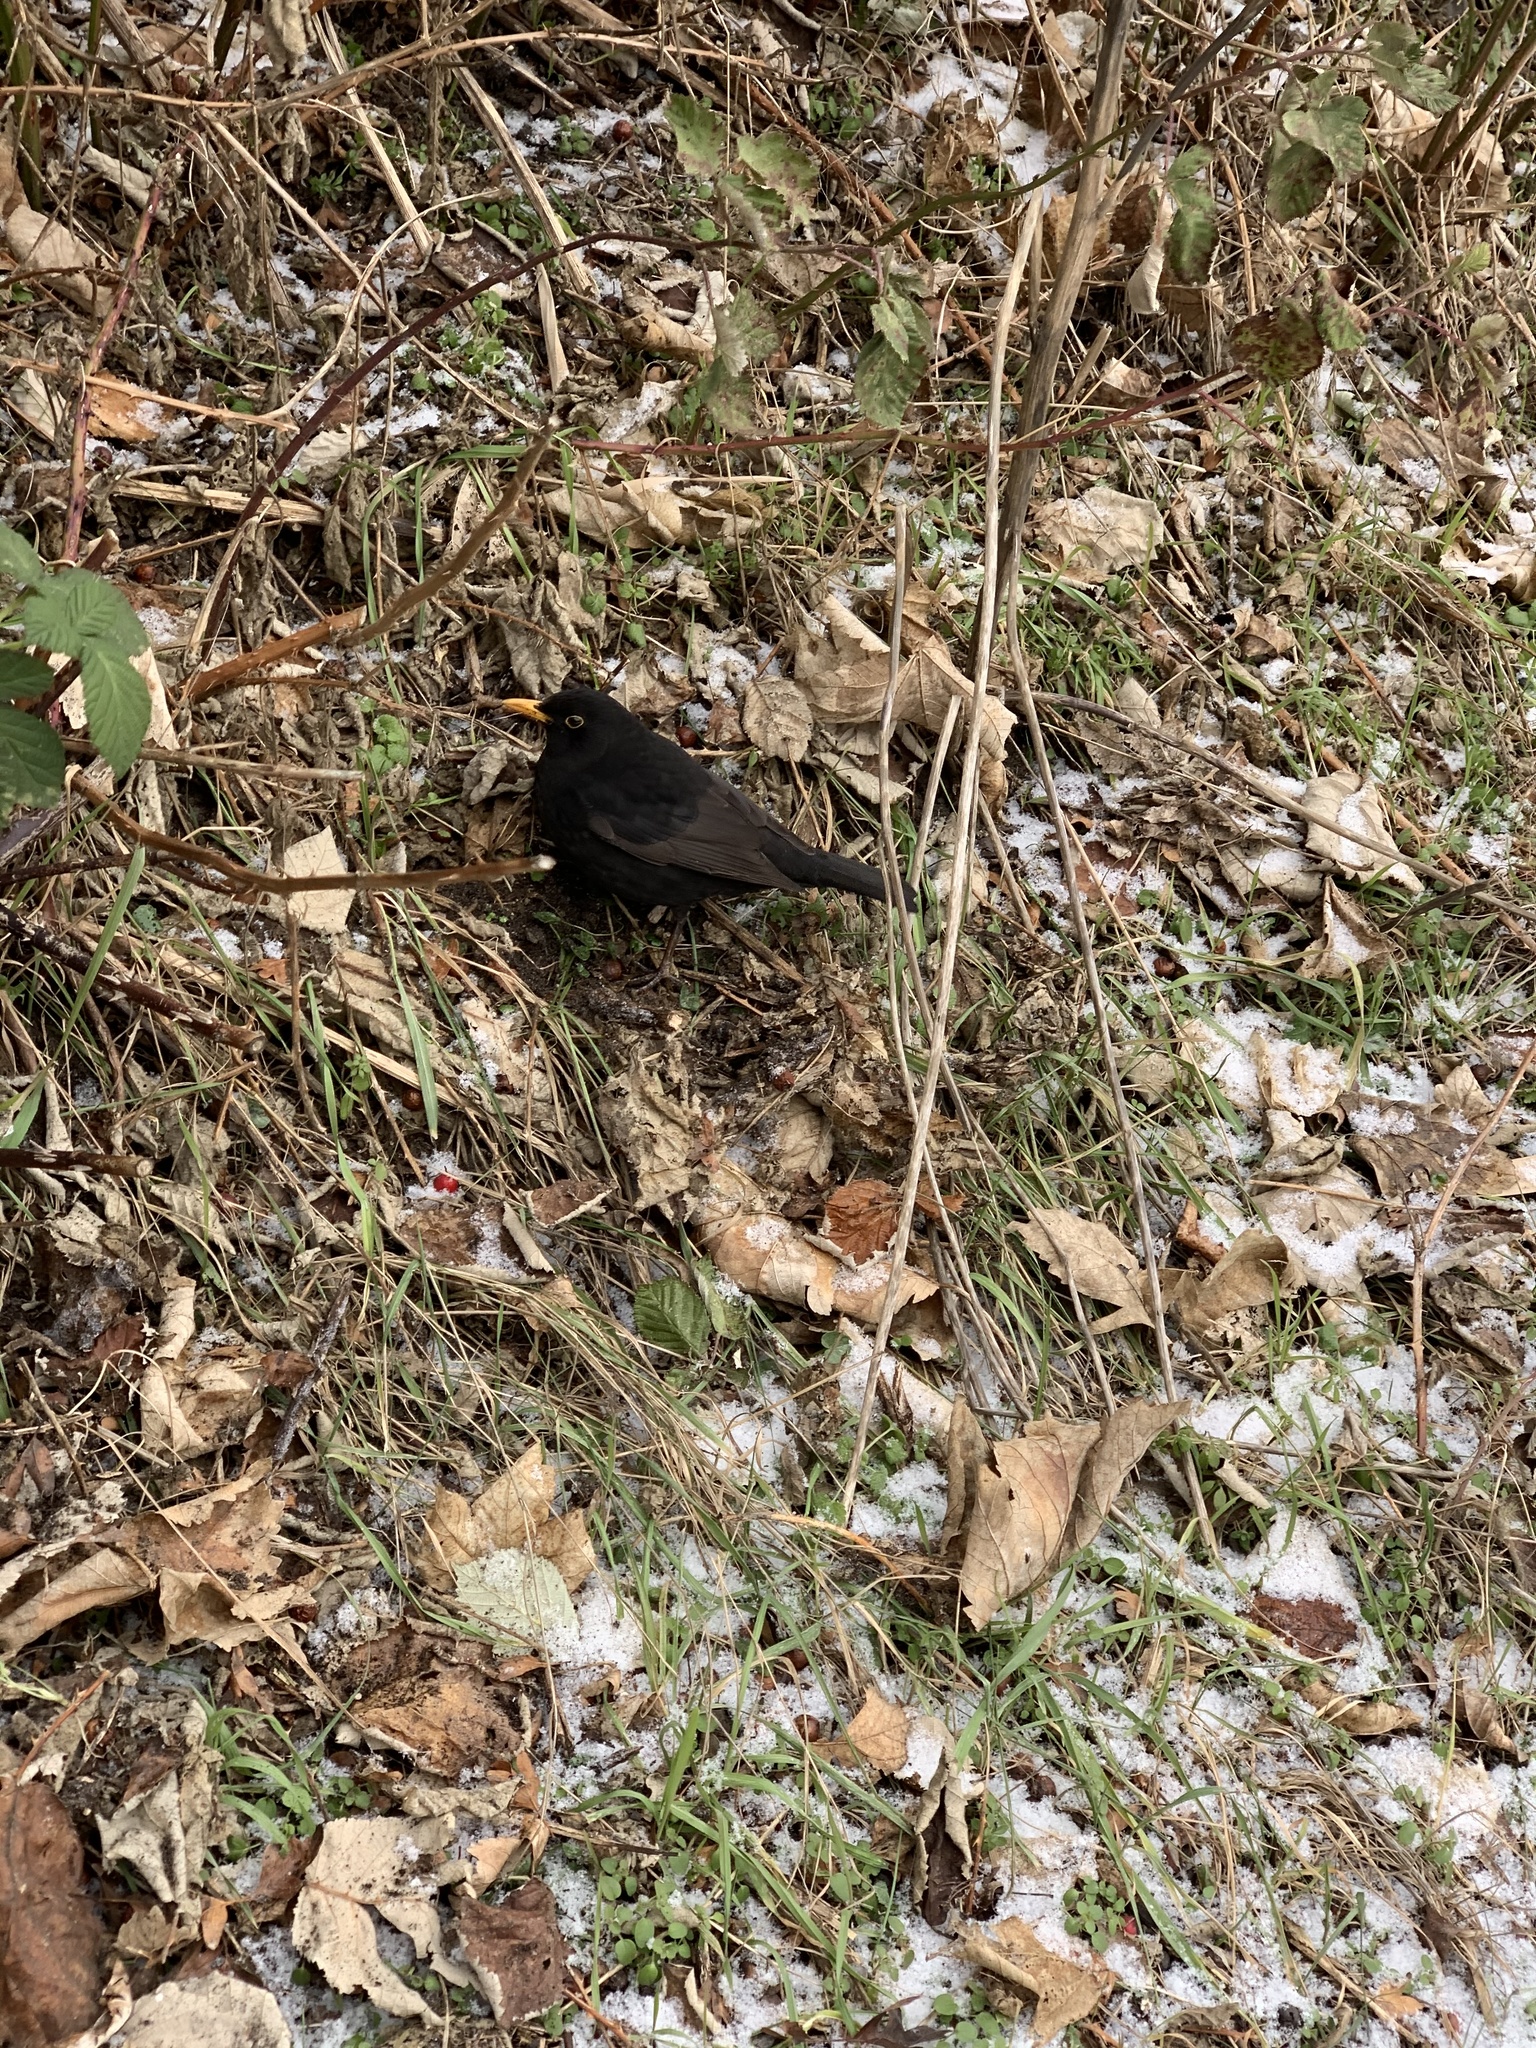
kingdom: Animalia
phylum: Chordata
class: Aves
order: Passeriformes
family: Turdidae
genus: Turdus
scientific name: Turdus merula
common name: Common blackbird
